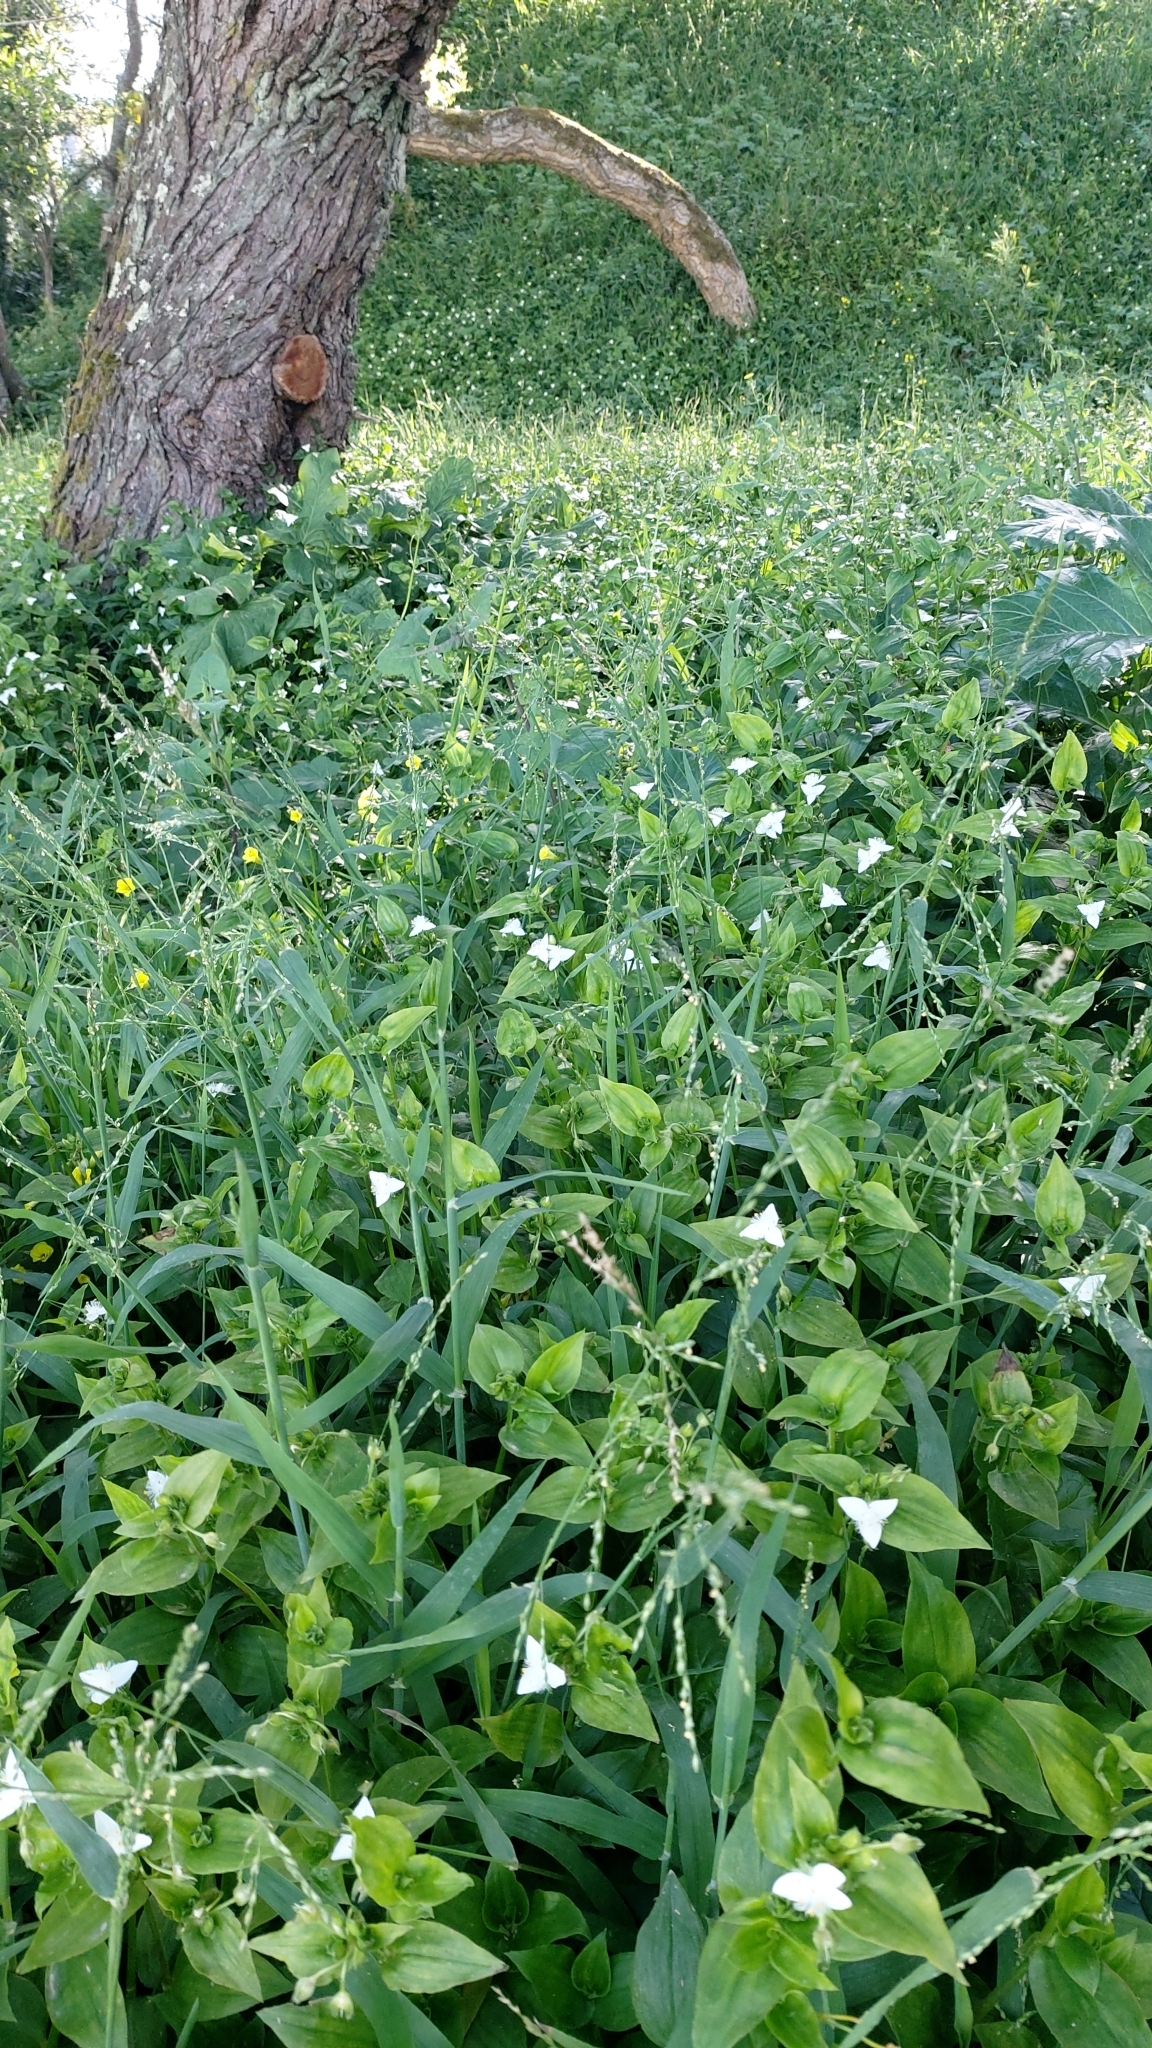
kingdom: Plantae
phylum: Tracheophyta
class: Liliopsida
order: Commelinales
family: Commelinaceae
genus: Tradescantia
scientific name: Tradescantia fluminensis
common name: Wandering-jew
